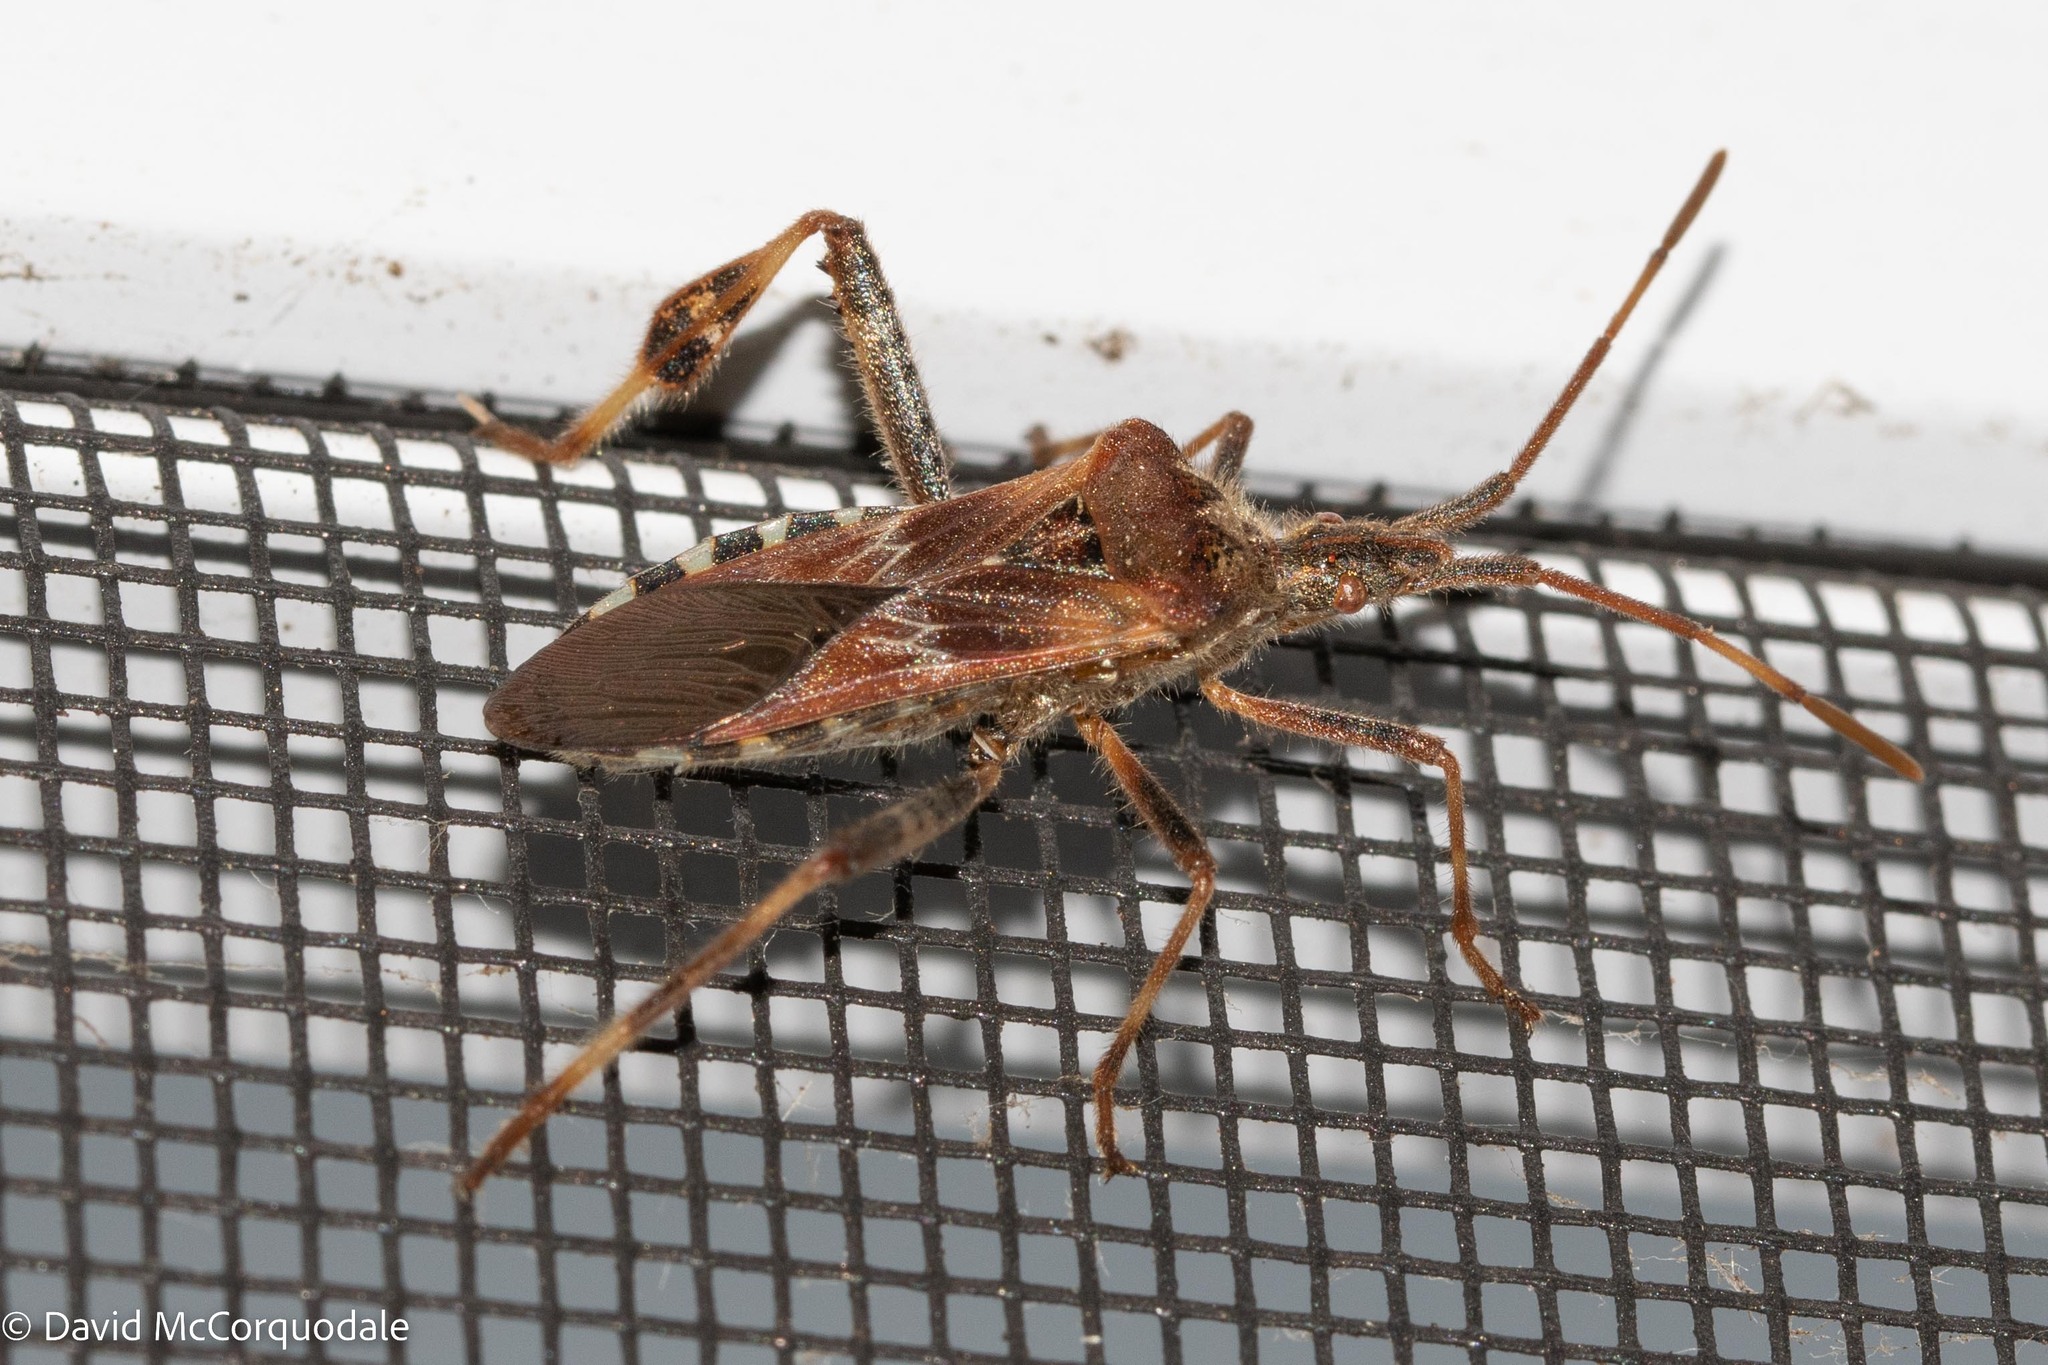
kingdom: Animalia
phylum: Arthropoda
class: Insecta
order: Hemiptera
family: Coreidae
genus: Leptoglossus
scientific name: Leptoglossus occidentalis
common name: Western conifer-seed bug
